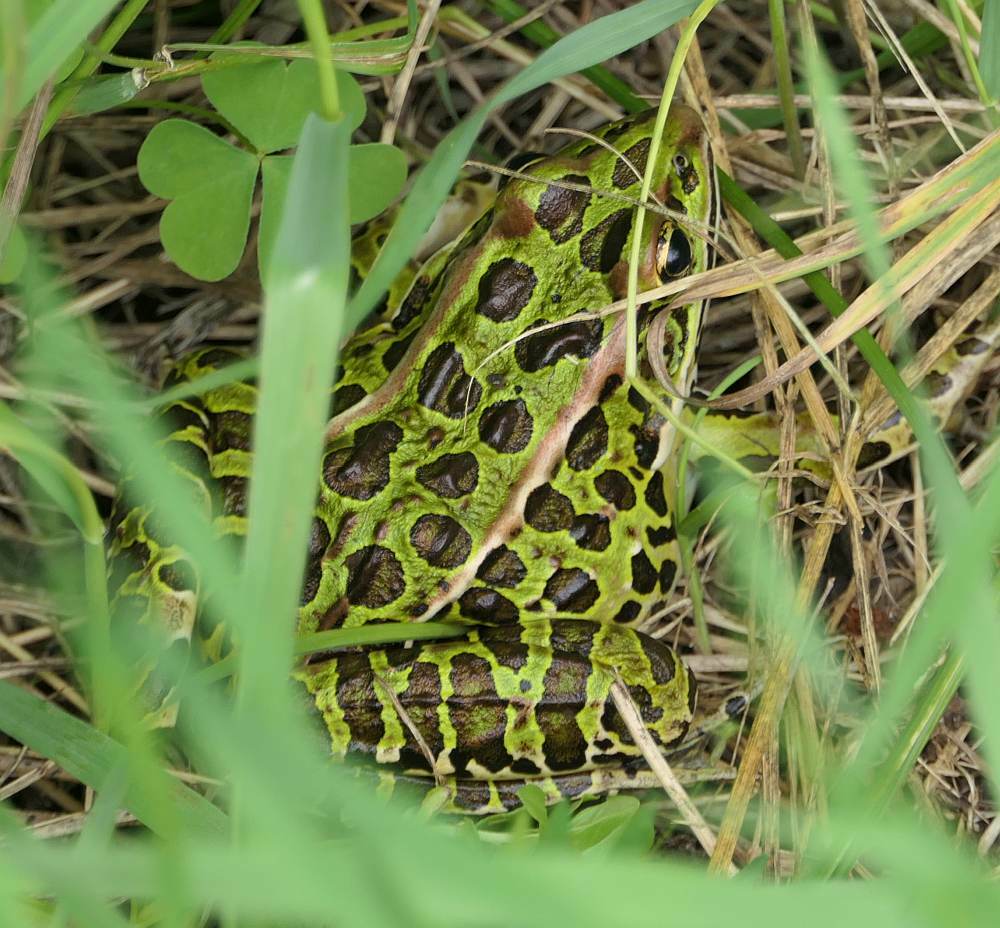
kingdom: Animalia
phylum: Chordata
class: Amphibia
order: Anura
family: Ranidae
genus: Lithobates
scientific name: Lithobates pipiens
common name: Northern leopard frog
